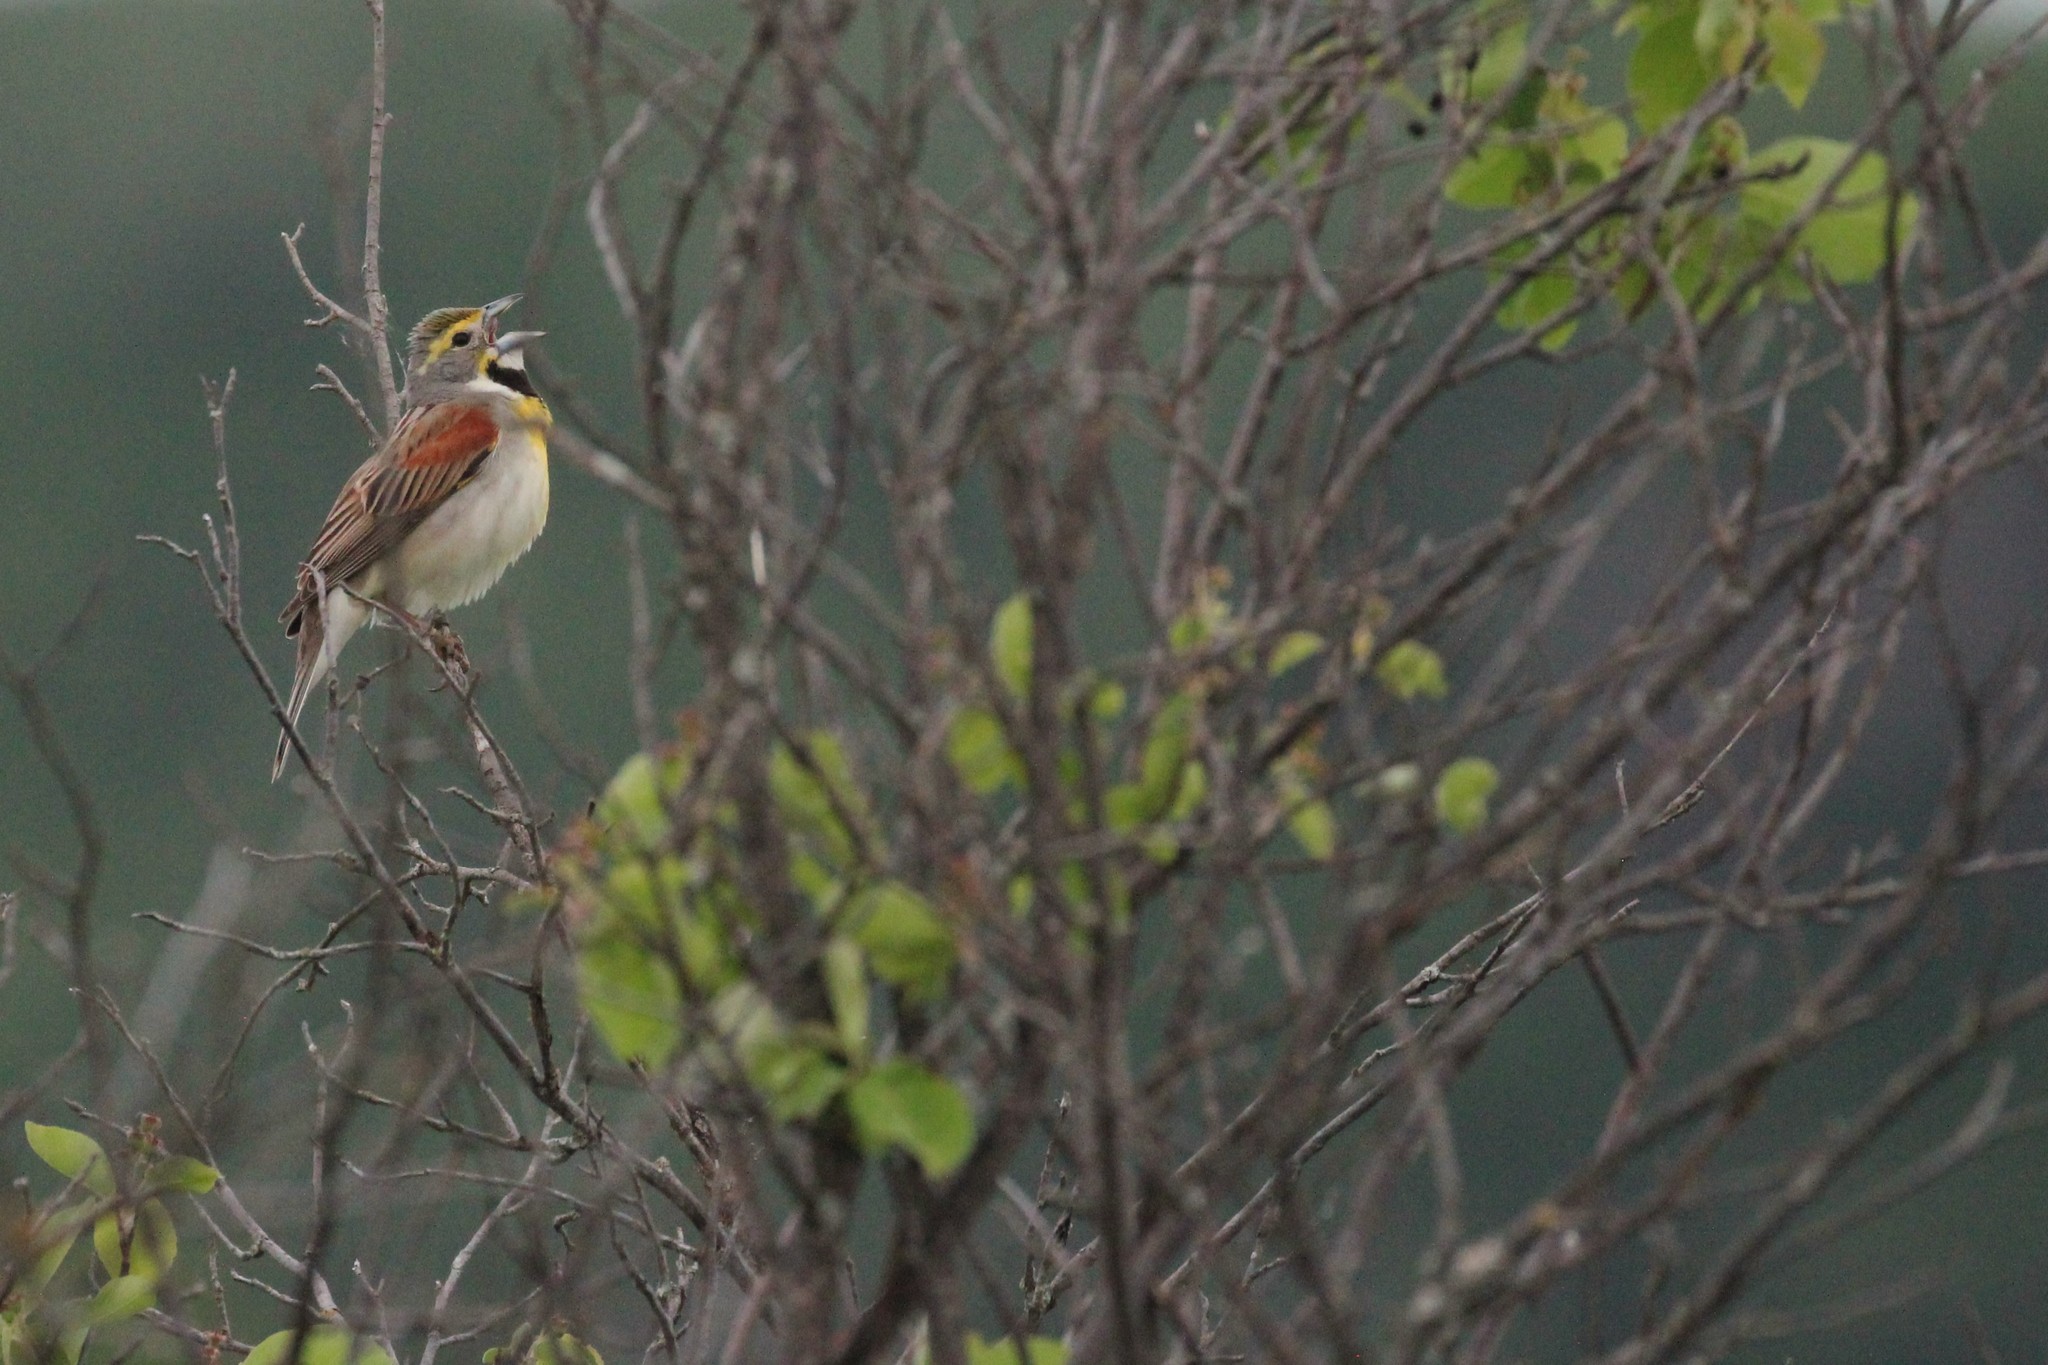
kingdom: Animalia
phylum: Chordata
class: Aves
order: Passeriformes
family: Cardinalidae
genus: Spiza
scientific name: Spiza americana
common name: Dickcissel
